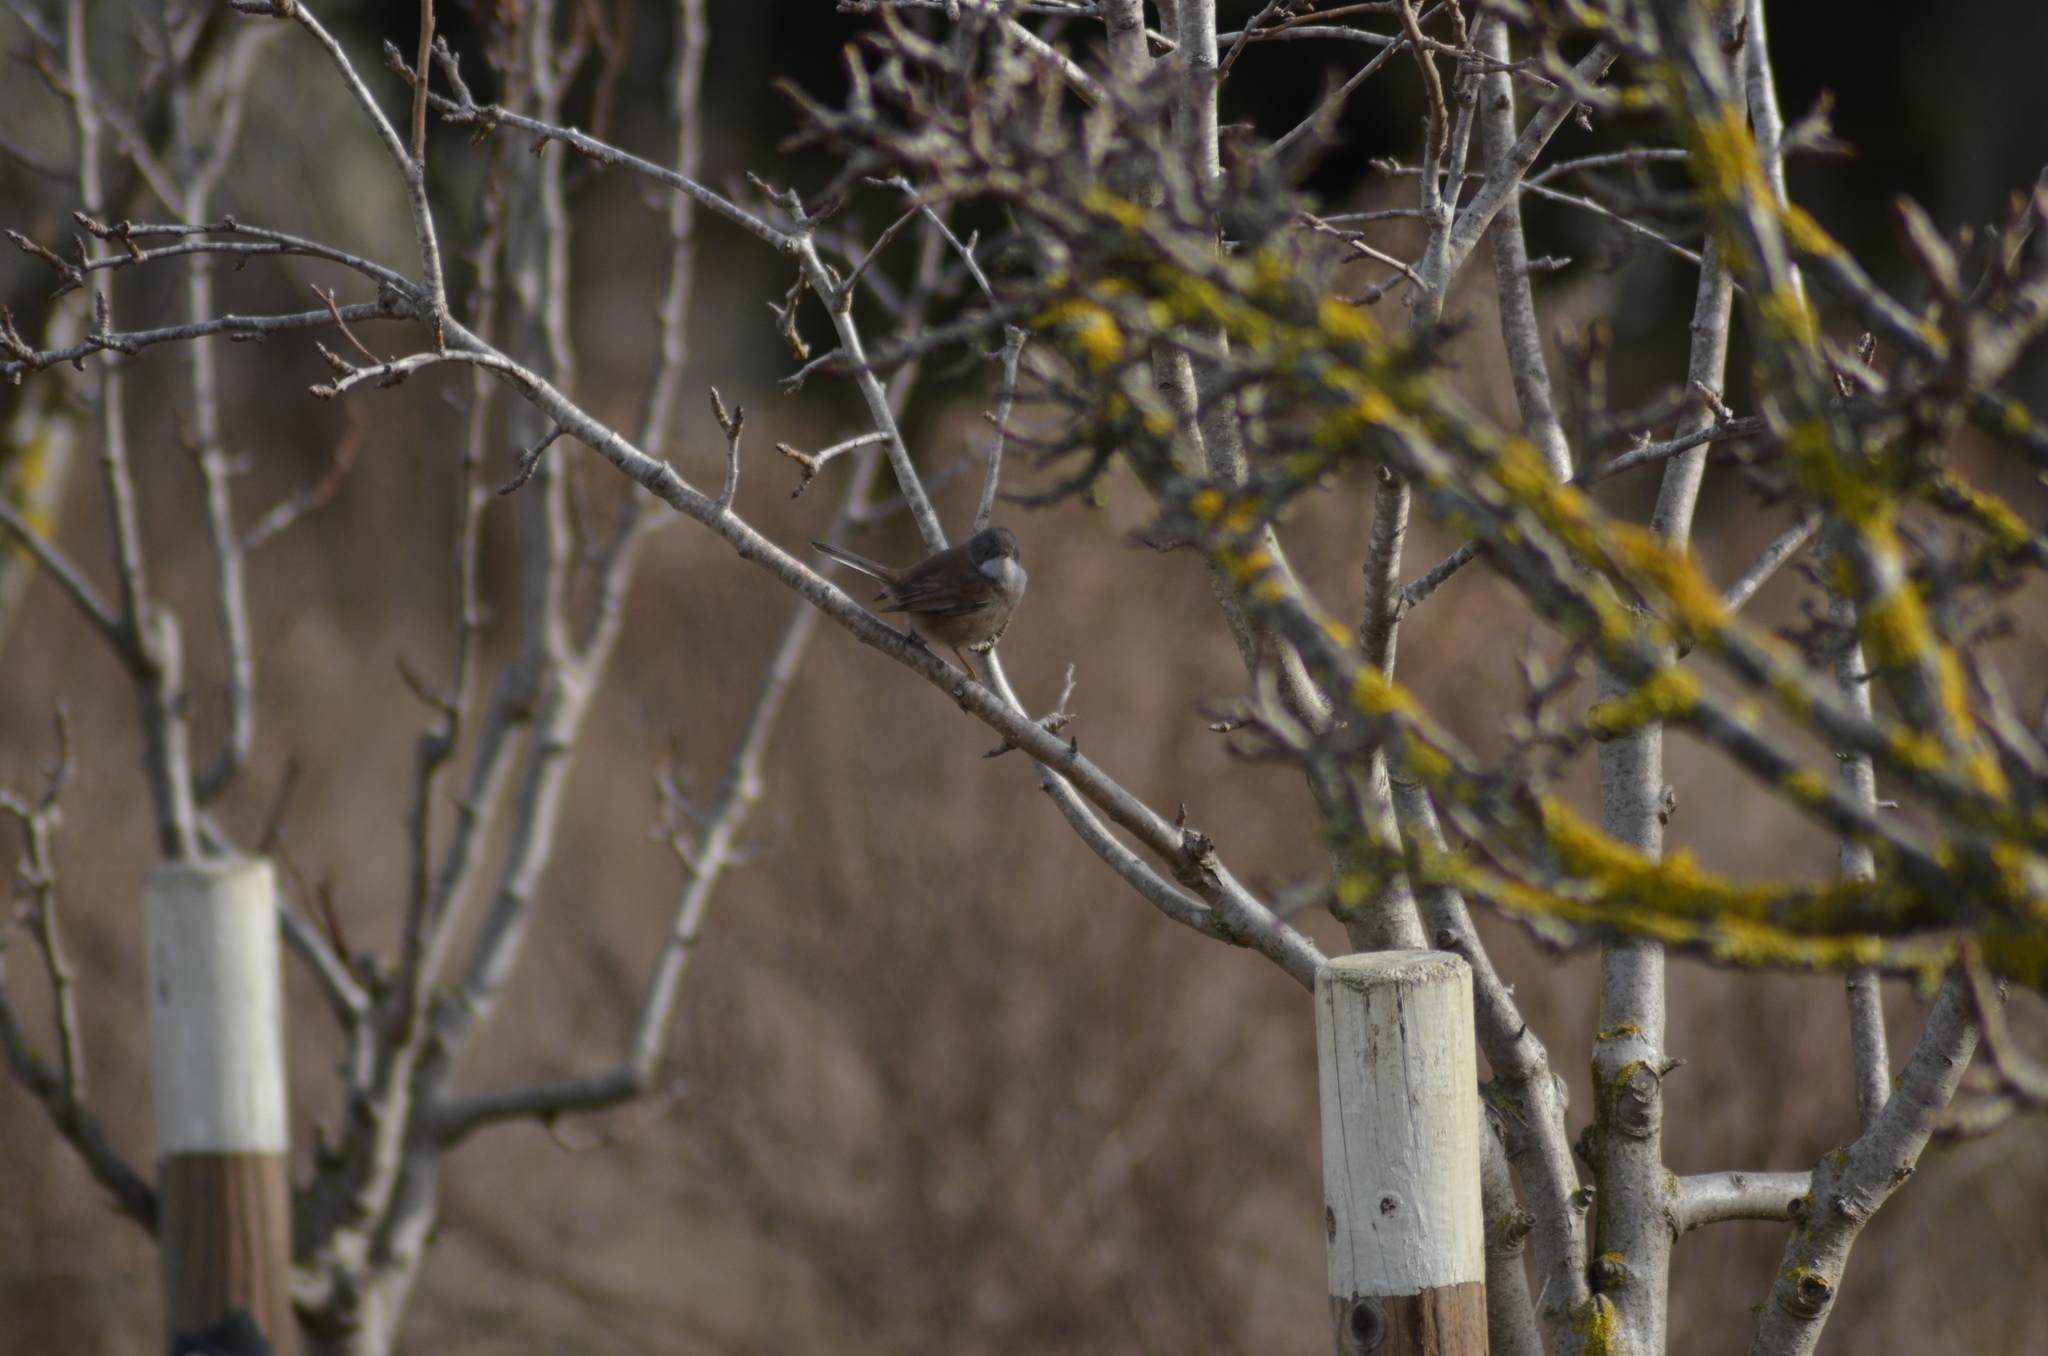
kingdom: Animalia
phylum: Chordata
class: Aves
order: Passeriformes
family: Sylviidae
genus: Curruca
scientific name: Curruca melanocephala
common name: Sardinian warbler
